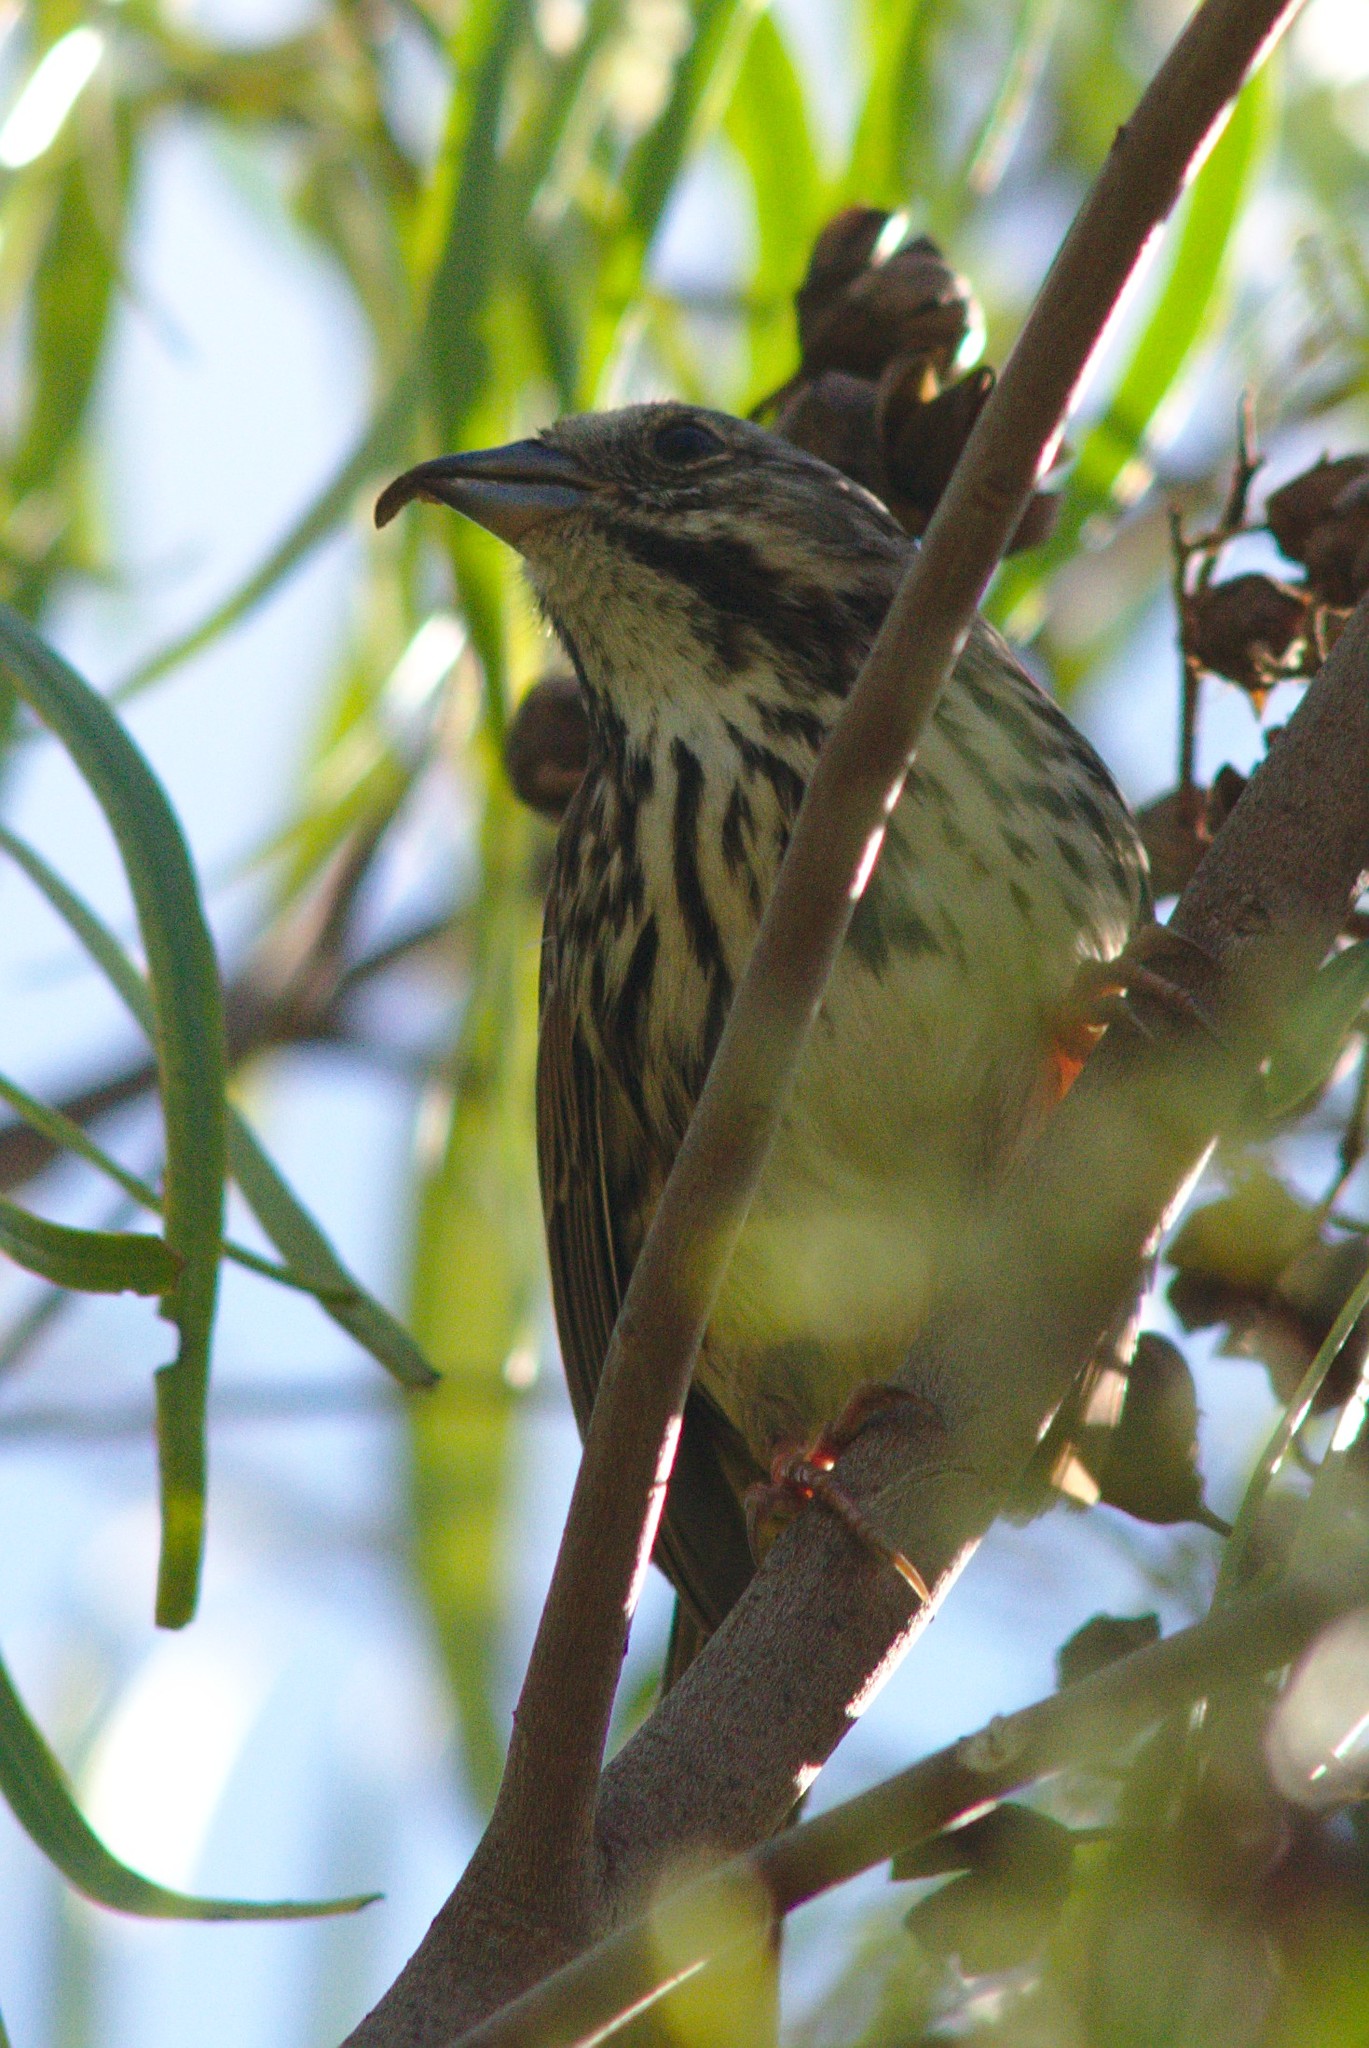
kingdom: Animalia
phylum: Chordata
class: Aves
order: Passeriformes
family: Passerellidae
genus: Melospiza
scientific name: Melospiza melodia
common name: Song sparrow
